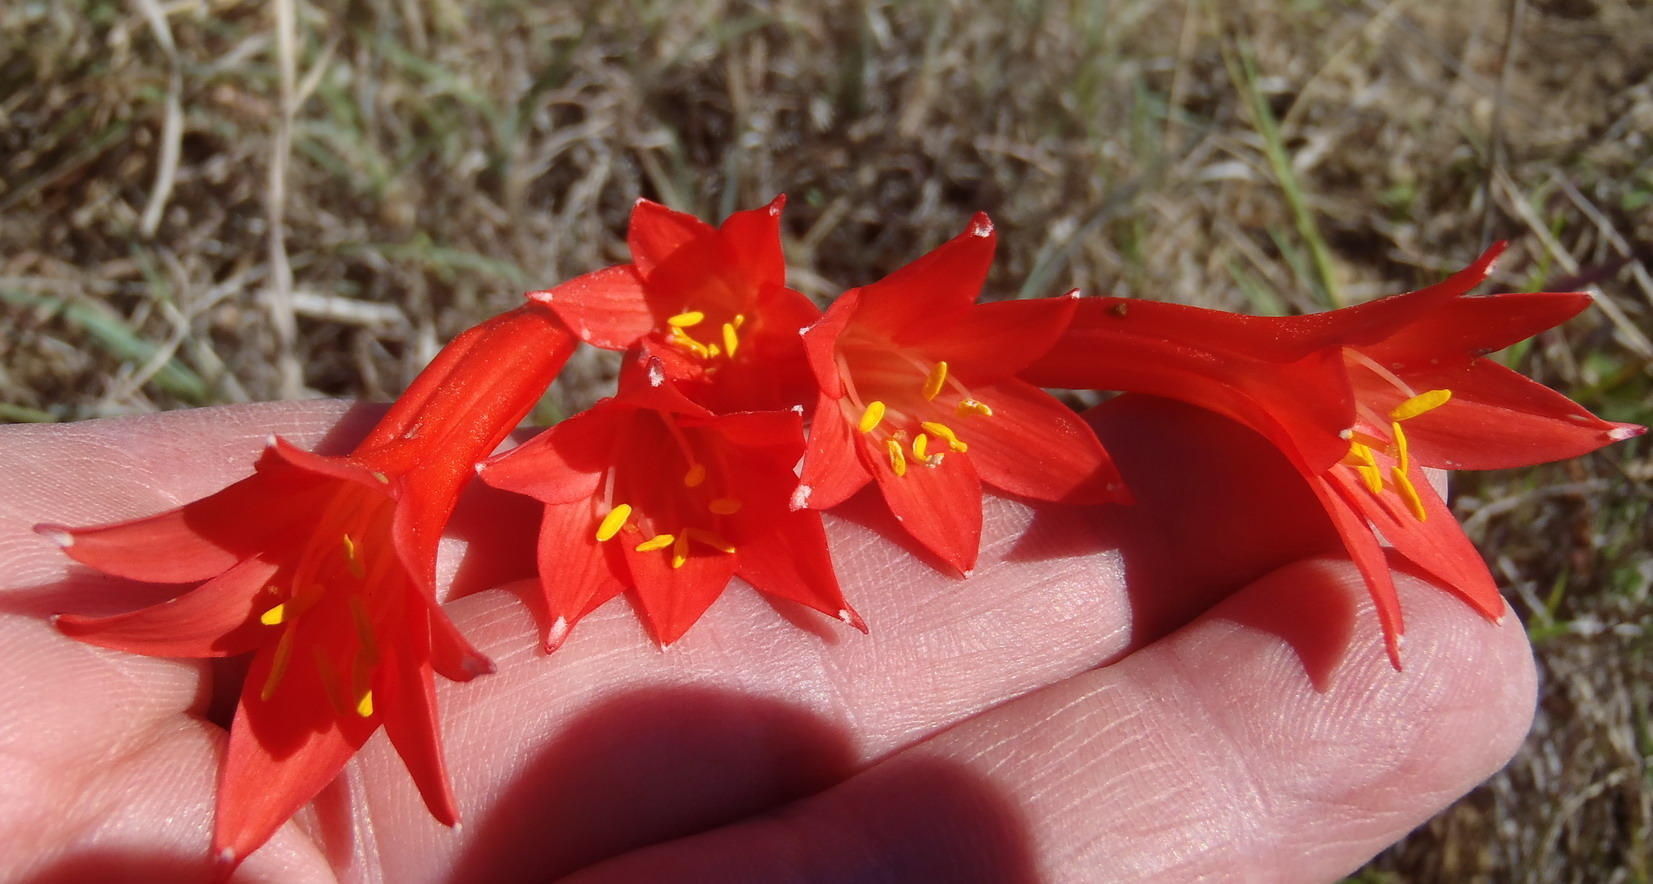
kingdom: Plantae
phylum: Tracheophyta
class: Liliopsida
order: Asparagales
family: Amaryllidaceae
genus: Cyrtanthus
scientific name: Cyrtanthus contractus
